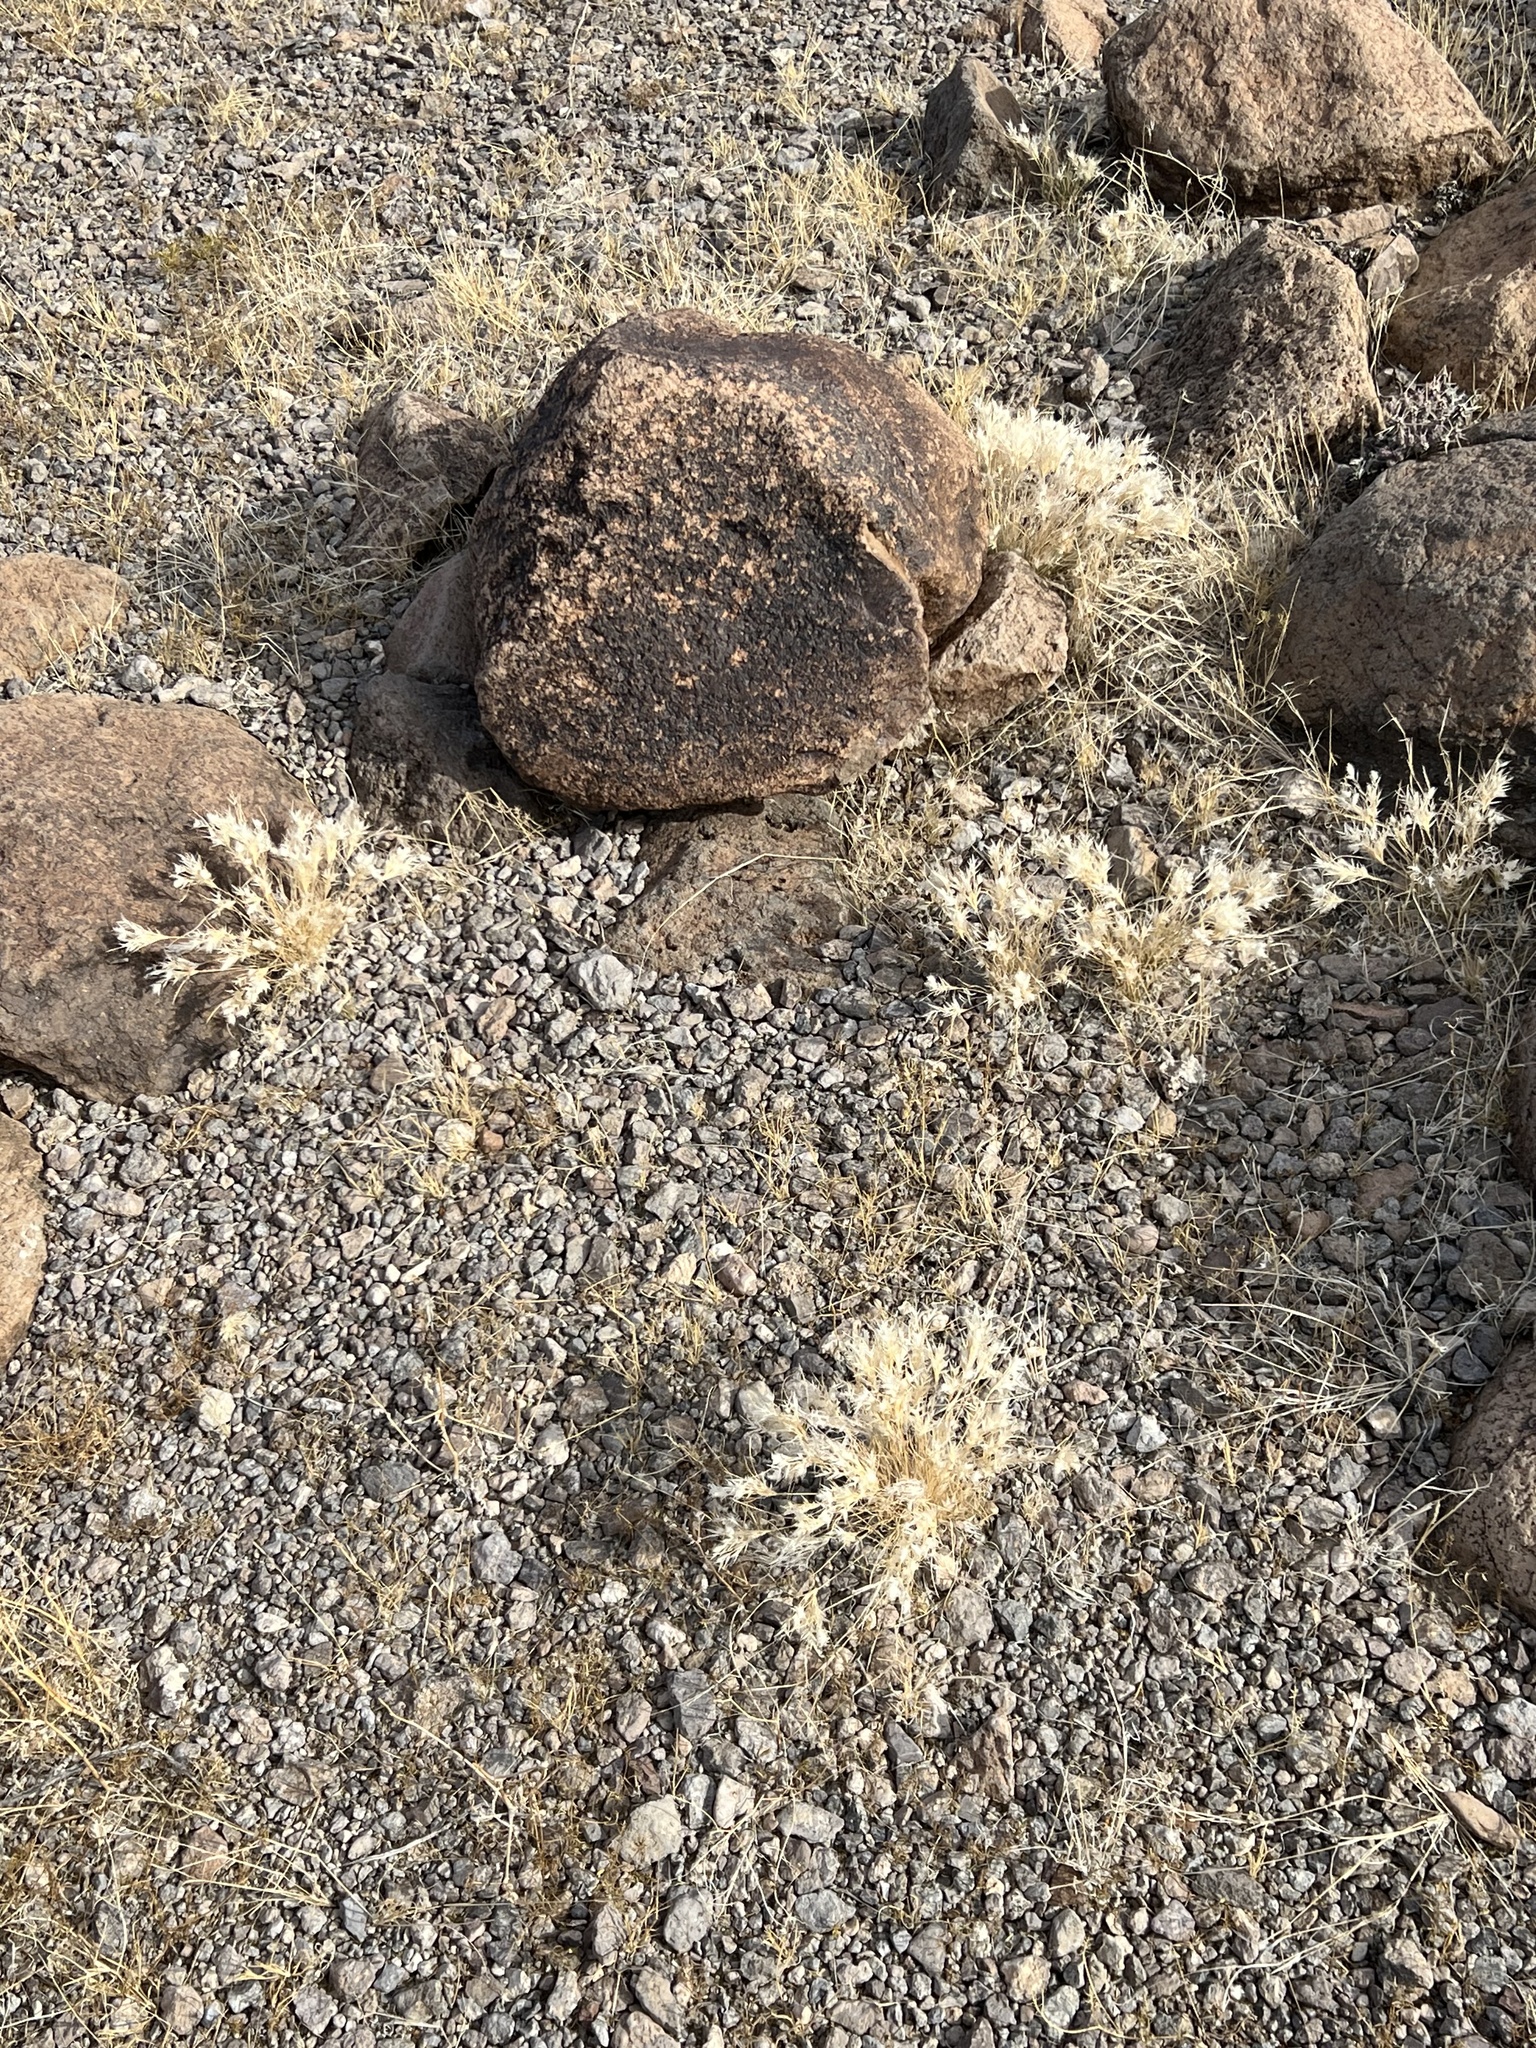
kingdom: Plantae
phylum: Tracheophyta
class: Liliopsida
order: Poales
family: Poaceae
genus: Dasyochloa
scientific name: Dasyochloa pulchella
